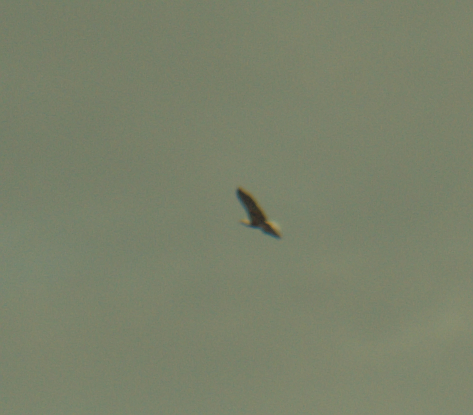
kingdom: Animalia
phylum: Chordata
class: Aves
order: Accipitriformes
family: Accipitridae
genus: Haliaeetus
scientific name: Haliaeetus leucocephalus
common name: Bald eagle
